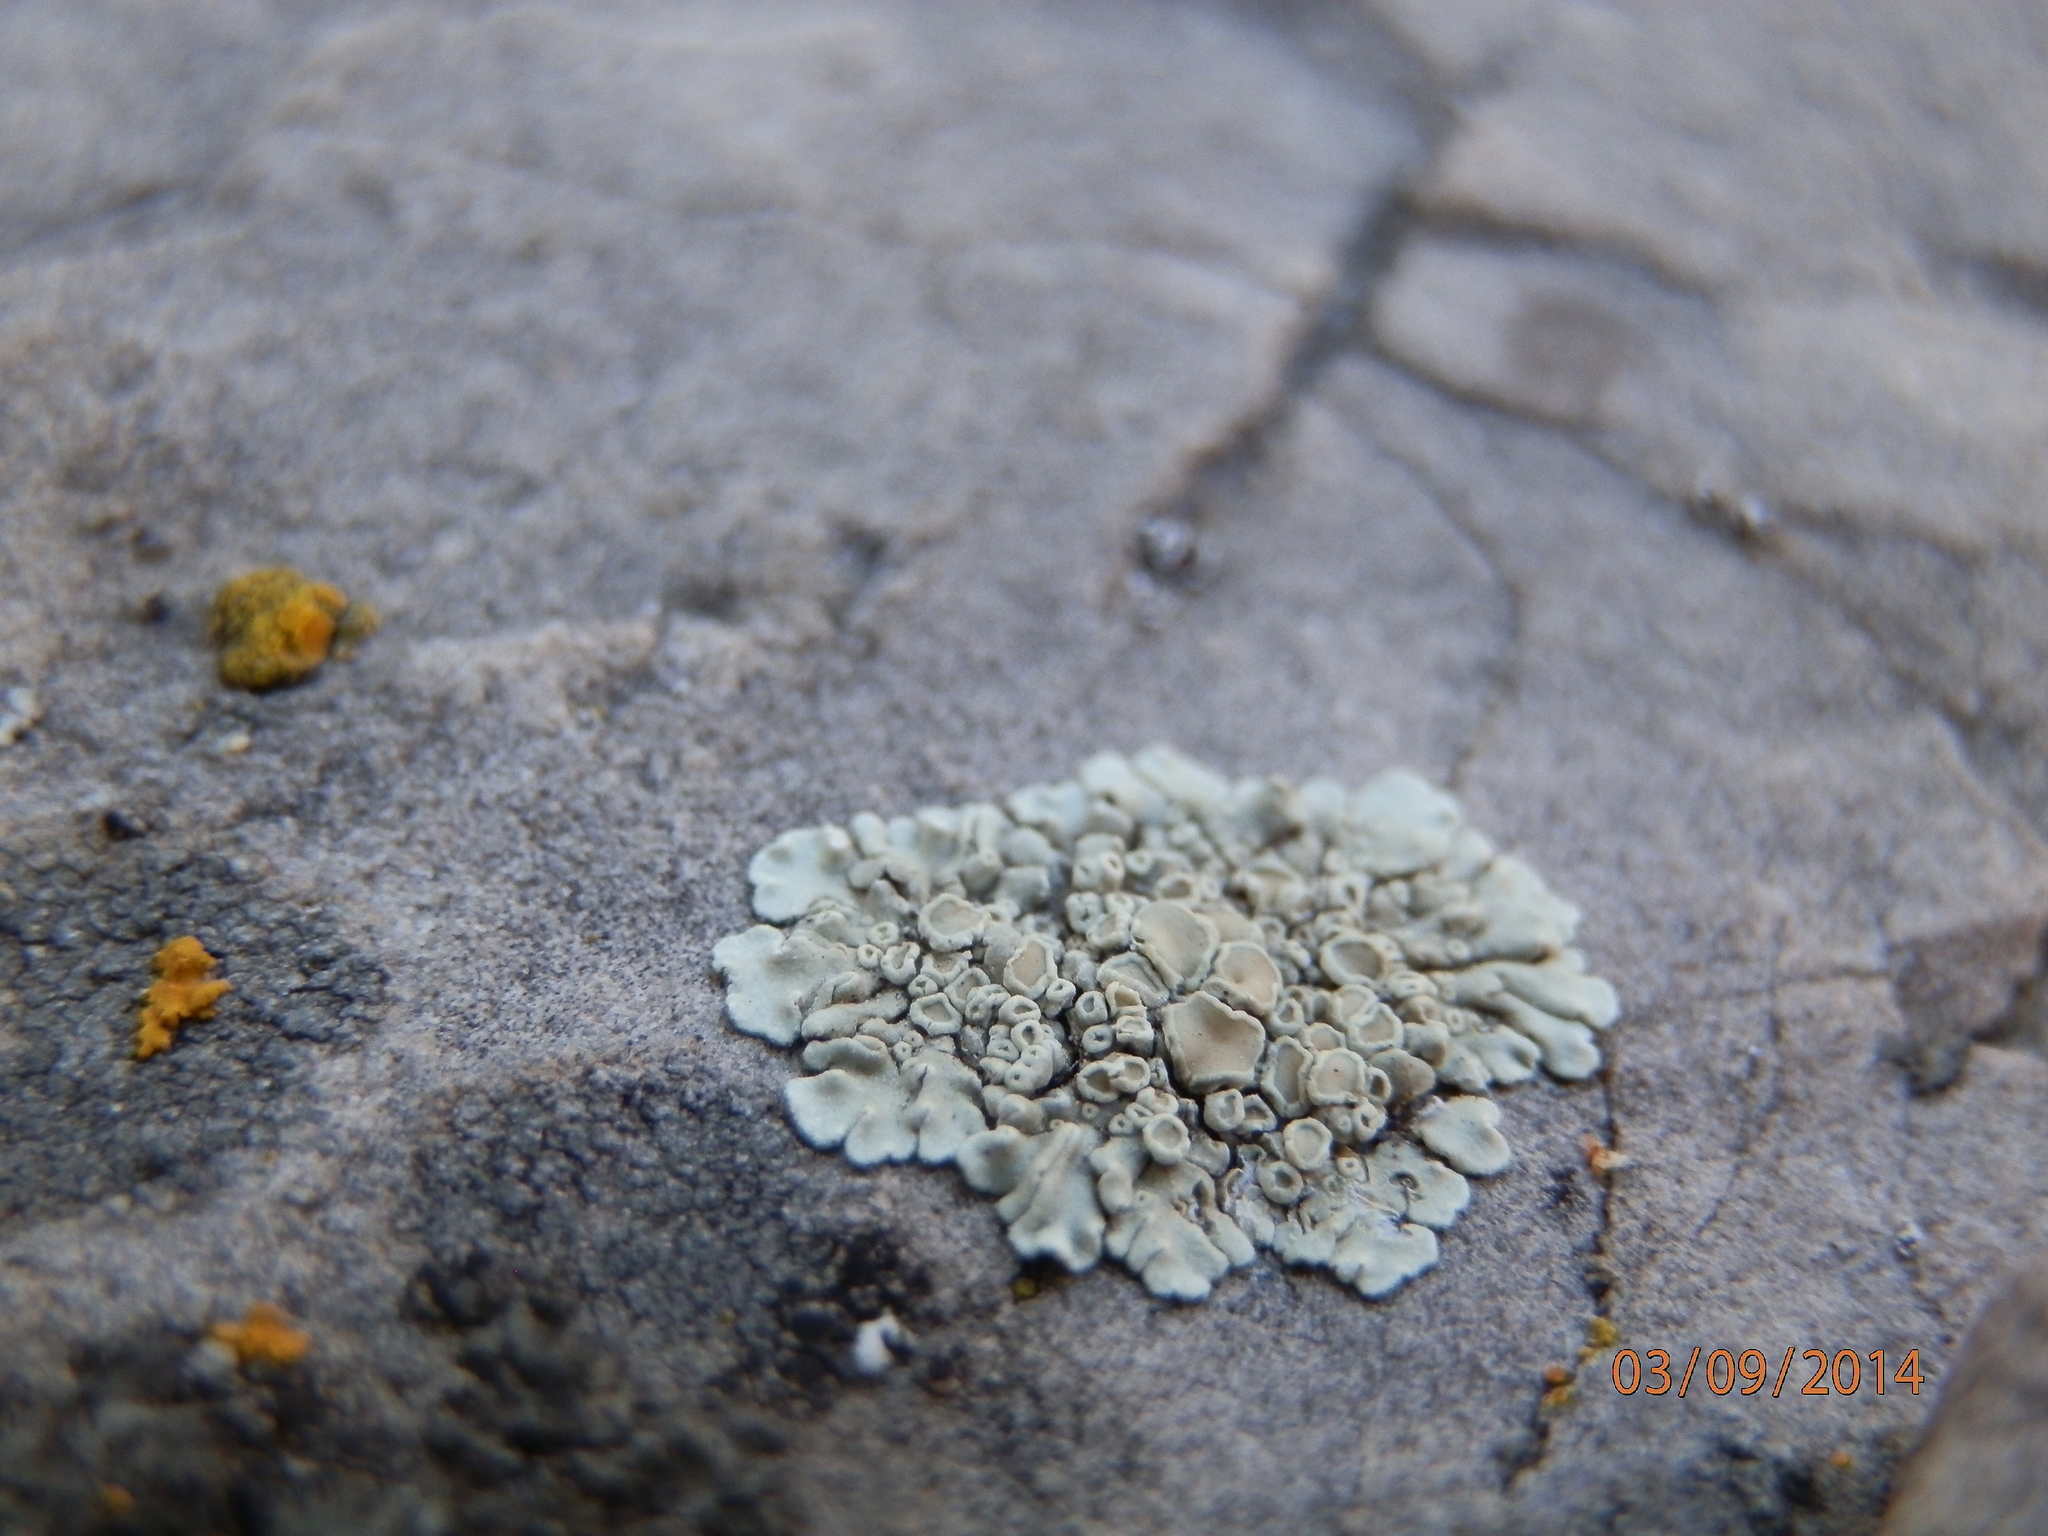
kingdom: Fungi
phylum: Ascomycota
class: Lecanoromycetes
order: Lecanorales
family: Lecanoraceae
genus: Rhizoplaca
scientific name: Rhizoplaca melanophthalma
